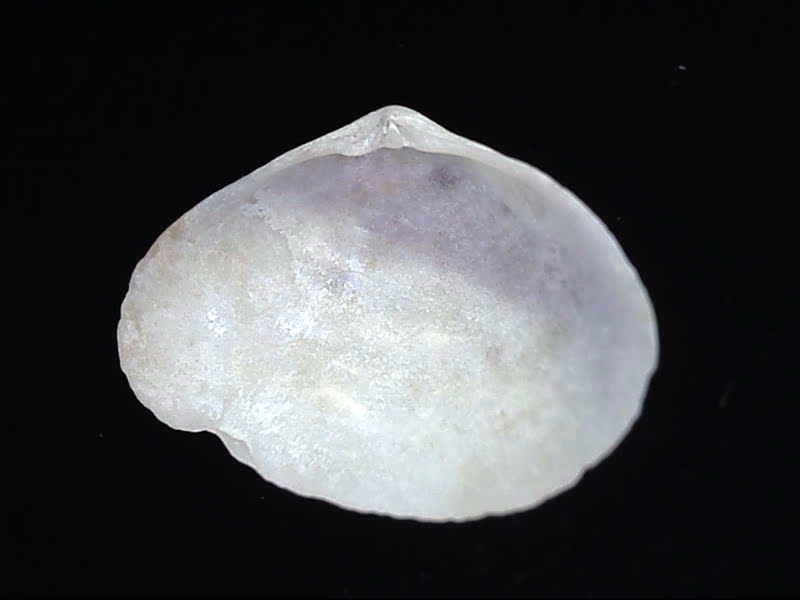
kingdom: Animalia
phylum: Mollusca
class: Bivalvia
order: Cardiida
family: Semelidae
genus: Leptomya
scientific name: Leptomya retiaria
